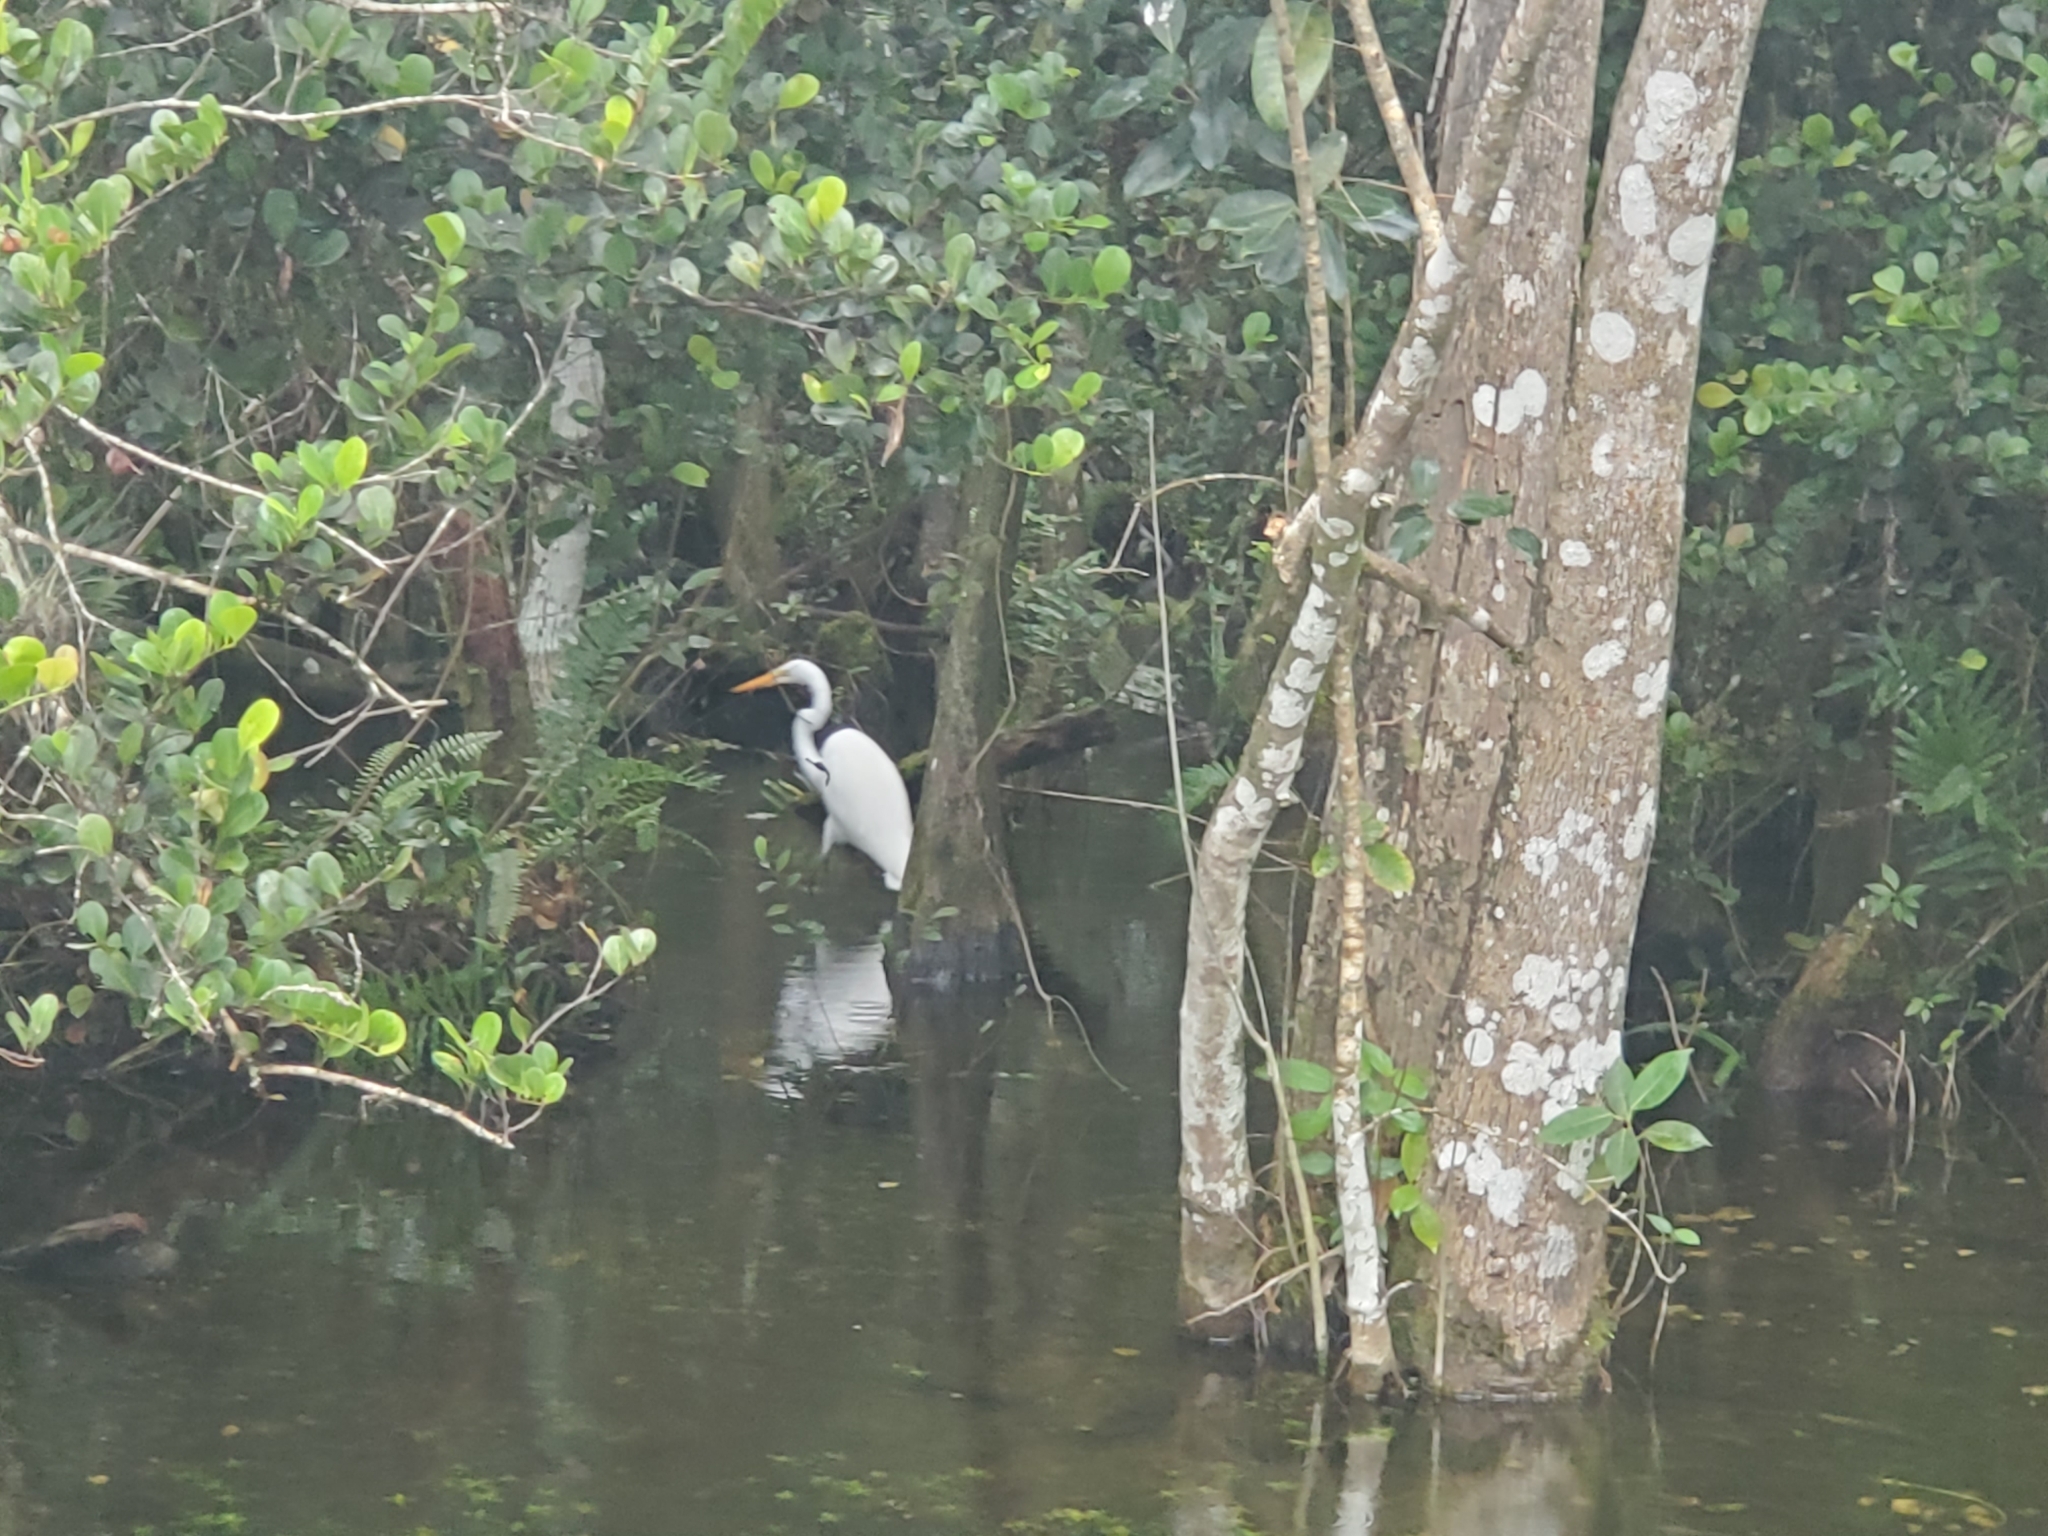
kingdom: Animalia
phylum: Chordata
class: Aves
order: Pelecaniformes
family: Ardeidae
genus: Ardea
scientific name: Ardea alba
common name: Great egret
